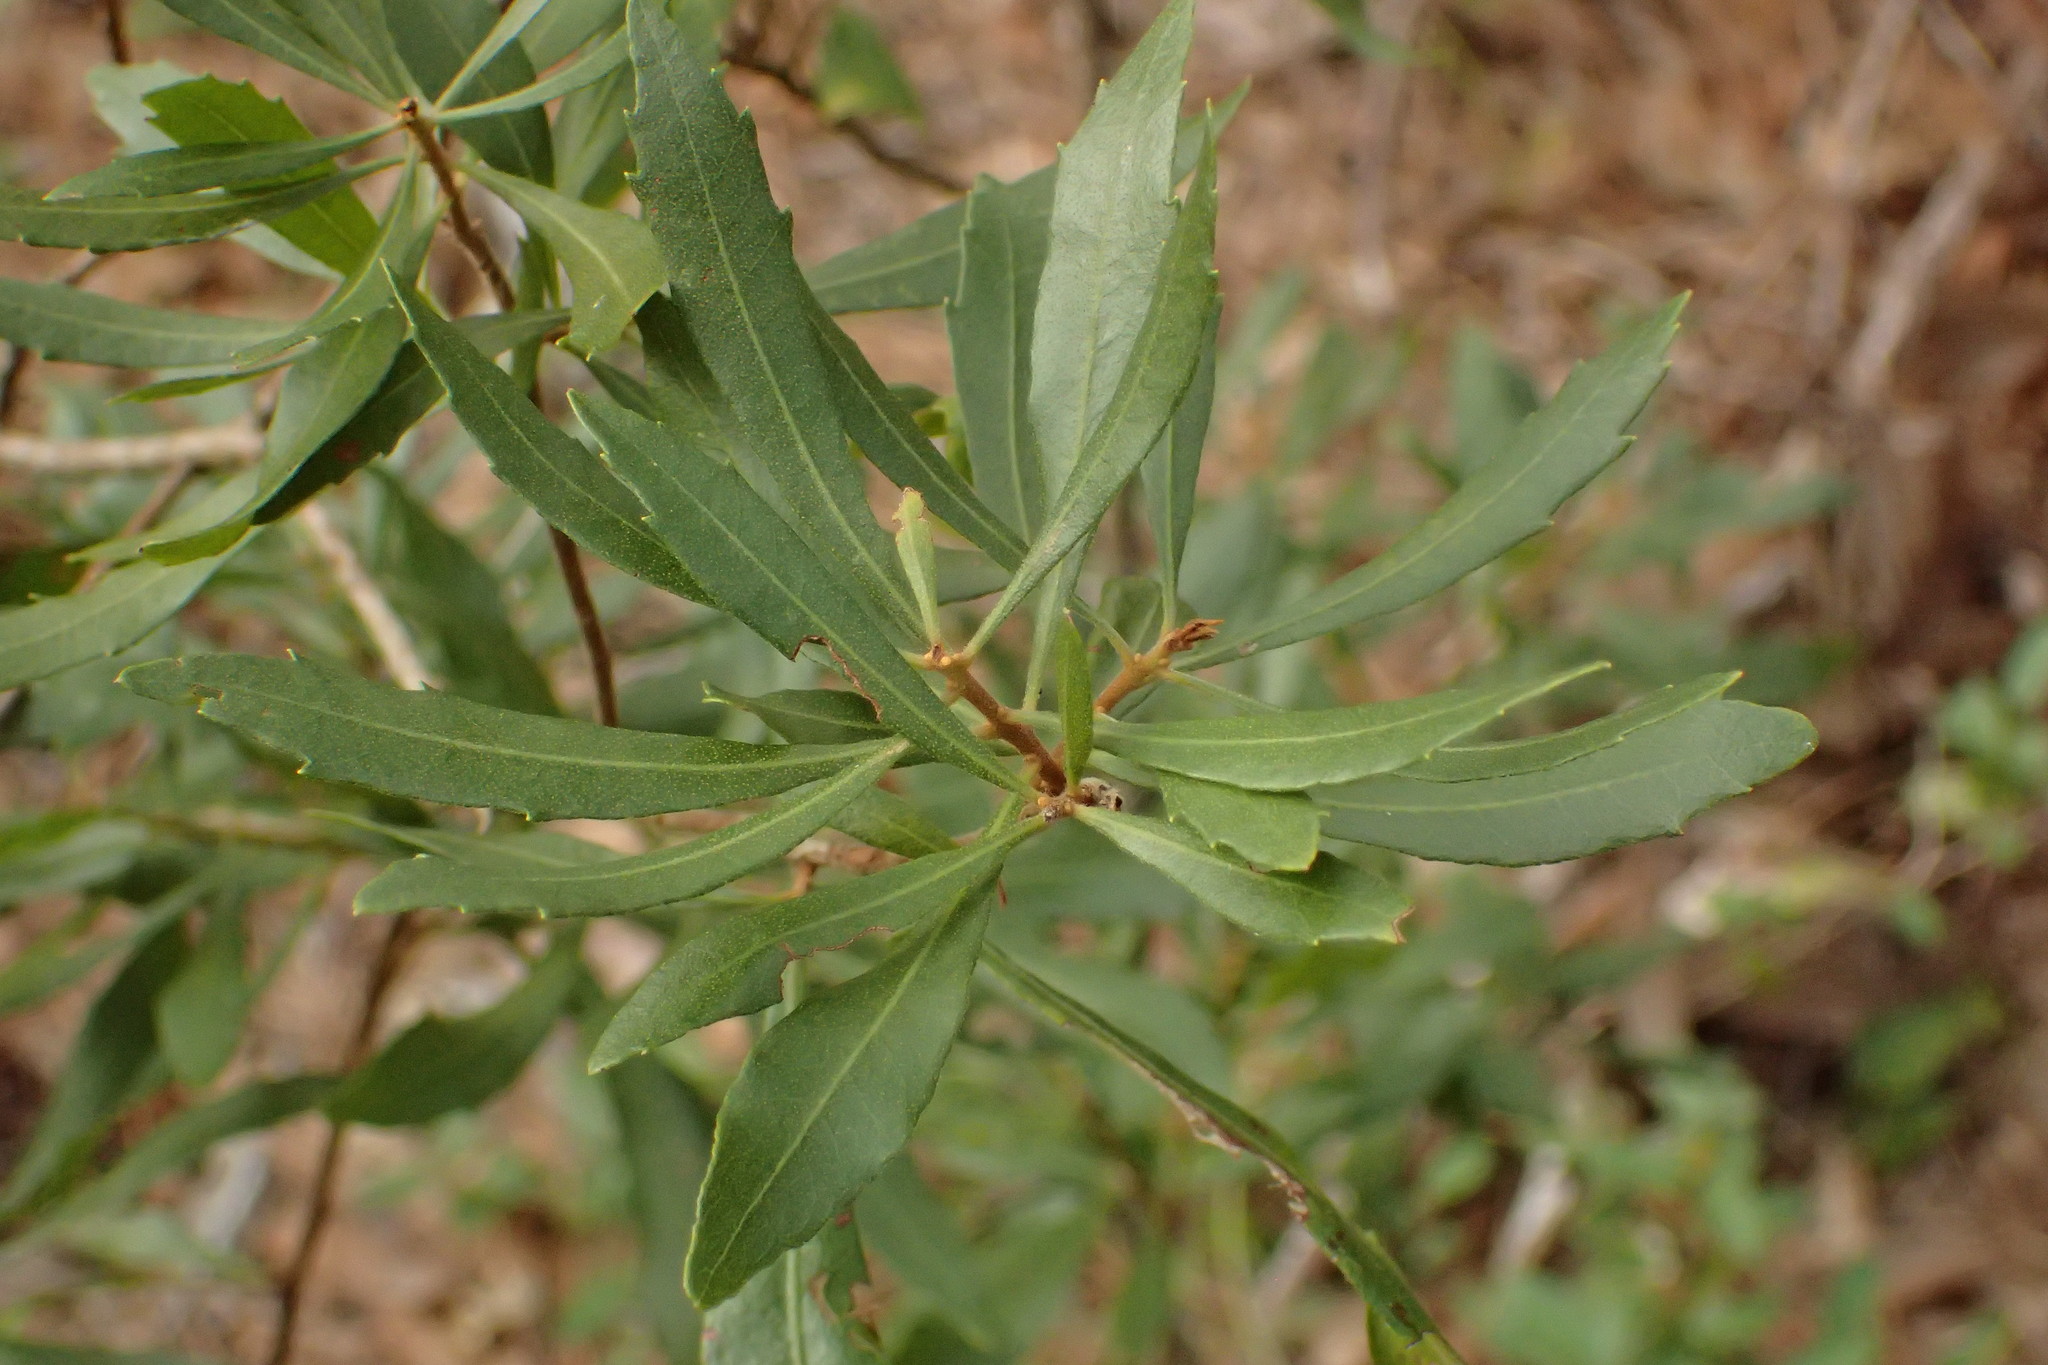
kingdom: Plantae
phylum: Tracheophyta
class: Magnoliopsida
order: Fagales
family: Myricaceae
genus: Morella
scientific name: Morella cerifera
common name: Wax myrtle
